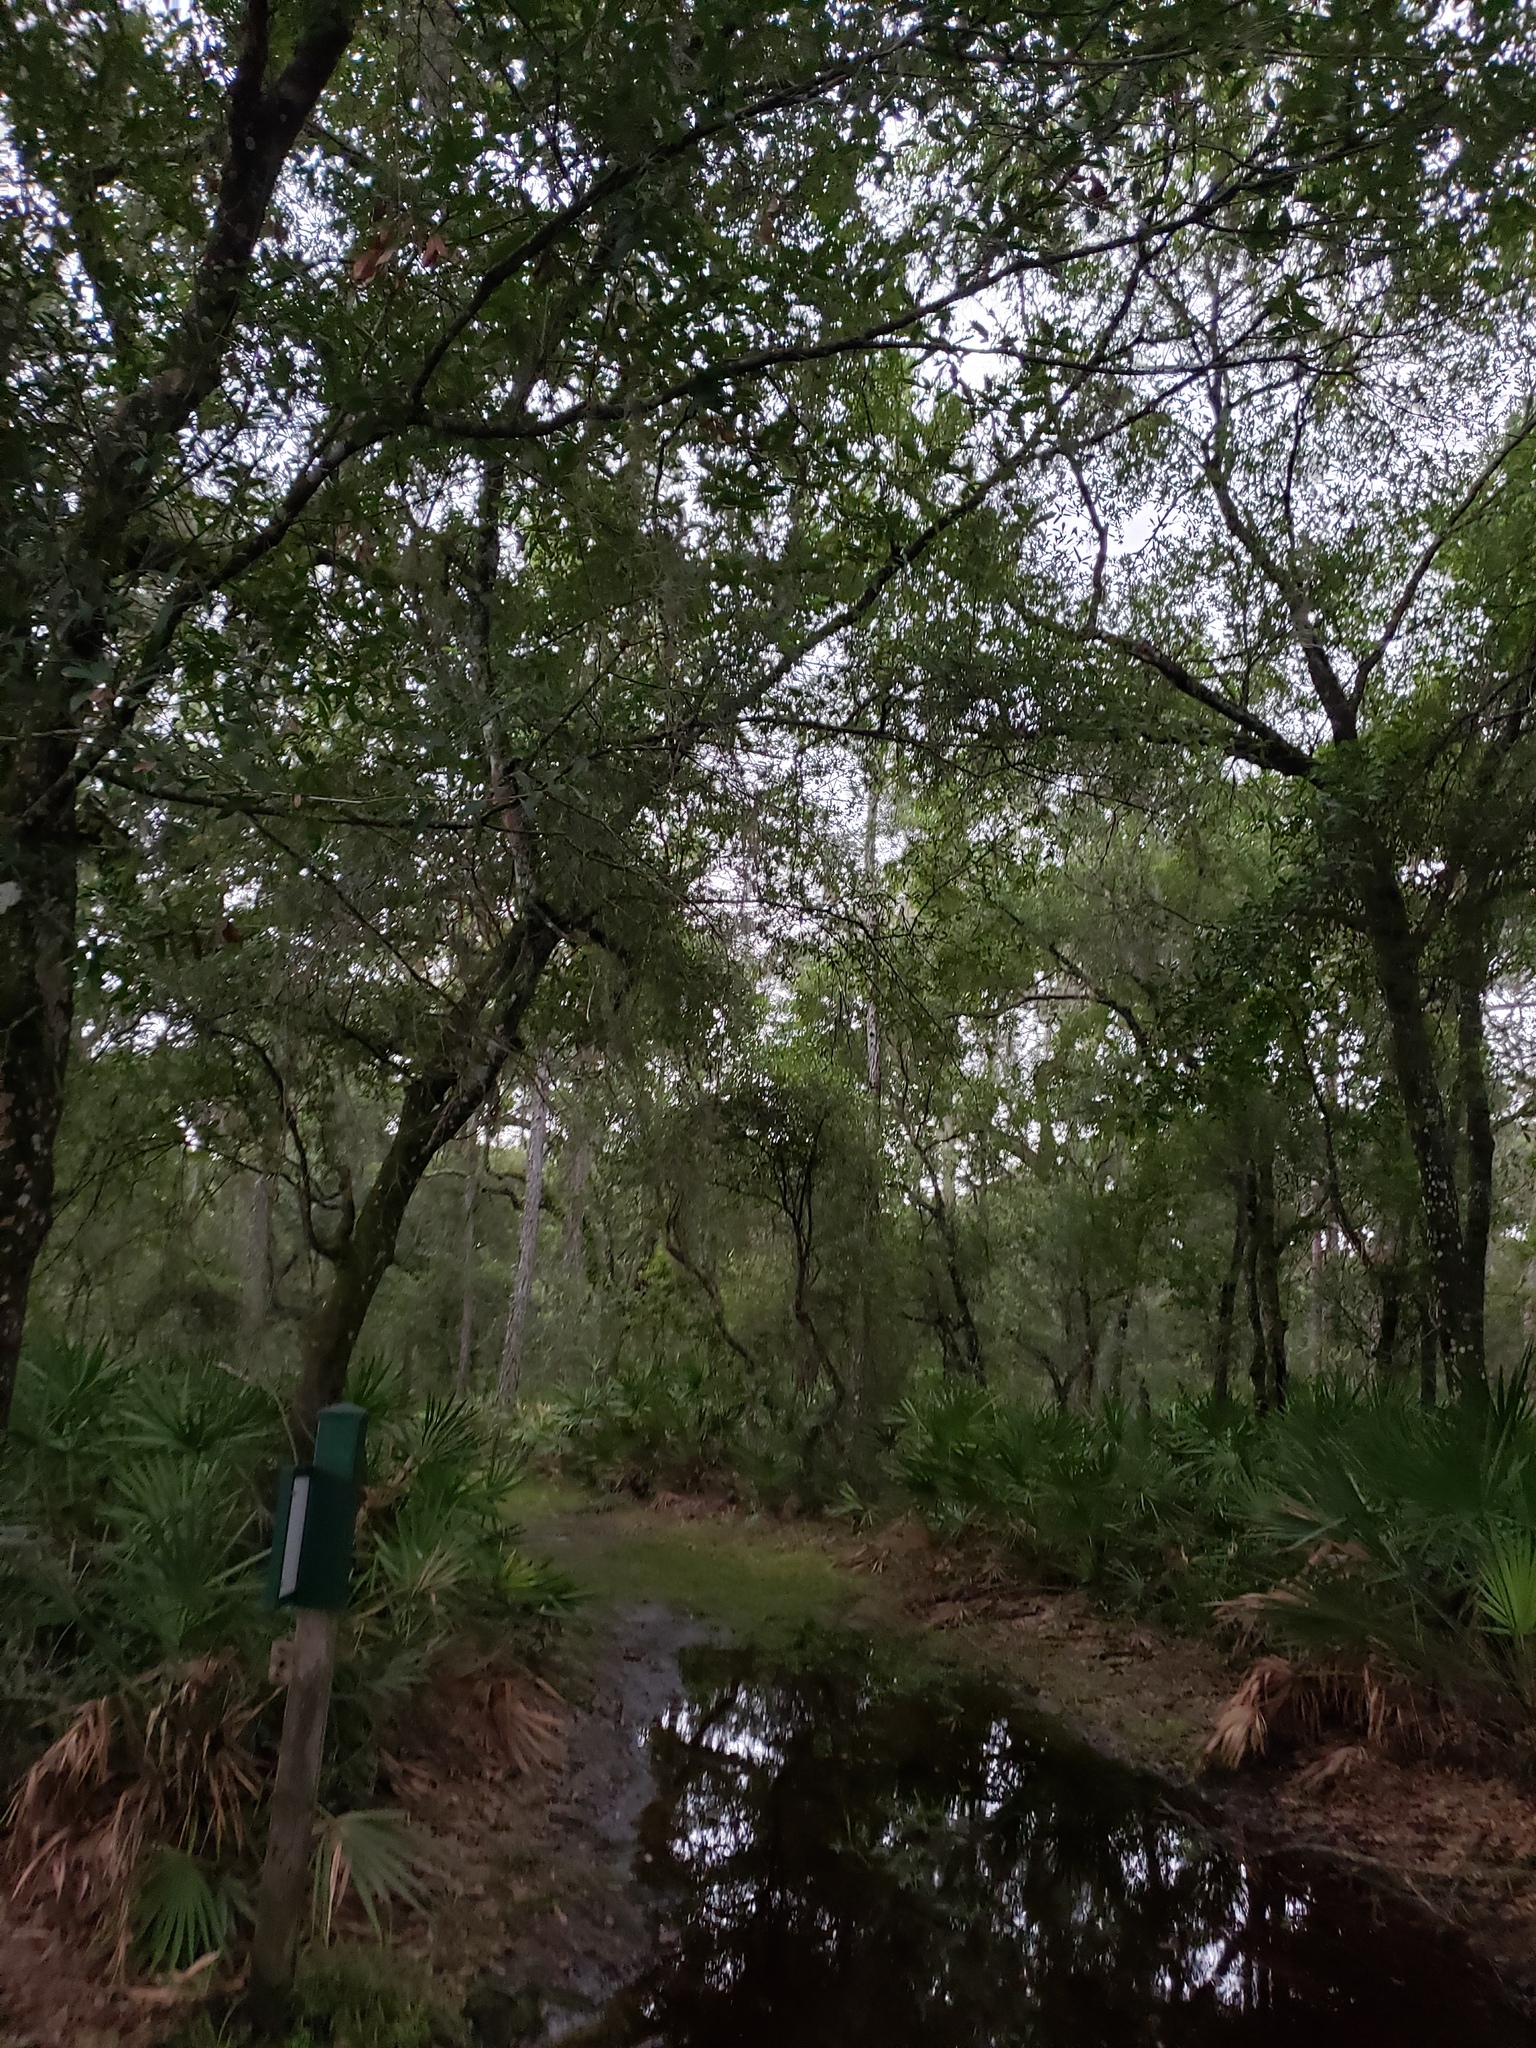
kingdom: Plantae
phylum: Tracheophyta
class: Liliopsida
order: Arecales
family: Arecaceae
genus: Serenoa
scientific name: Serenoa repens
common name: Saw-palmetto
